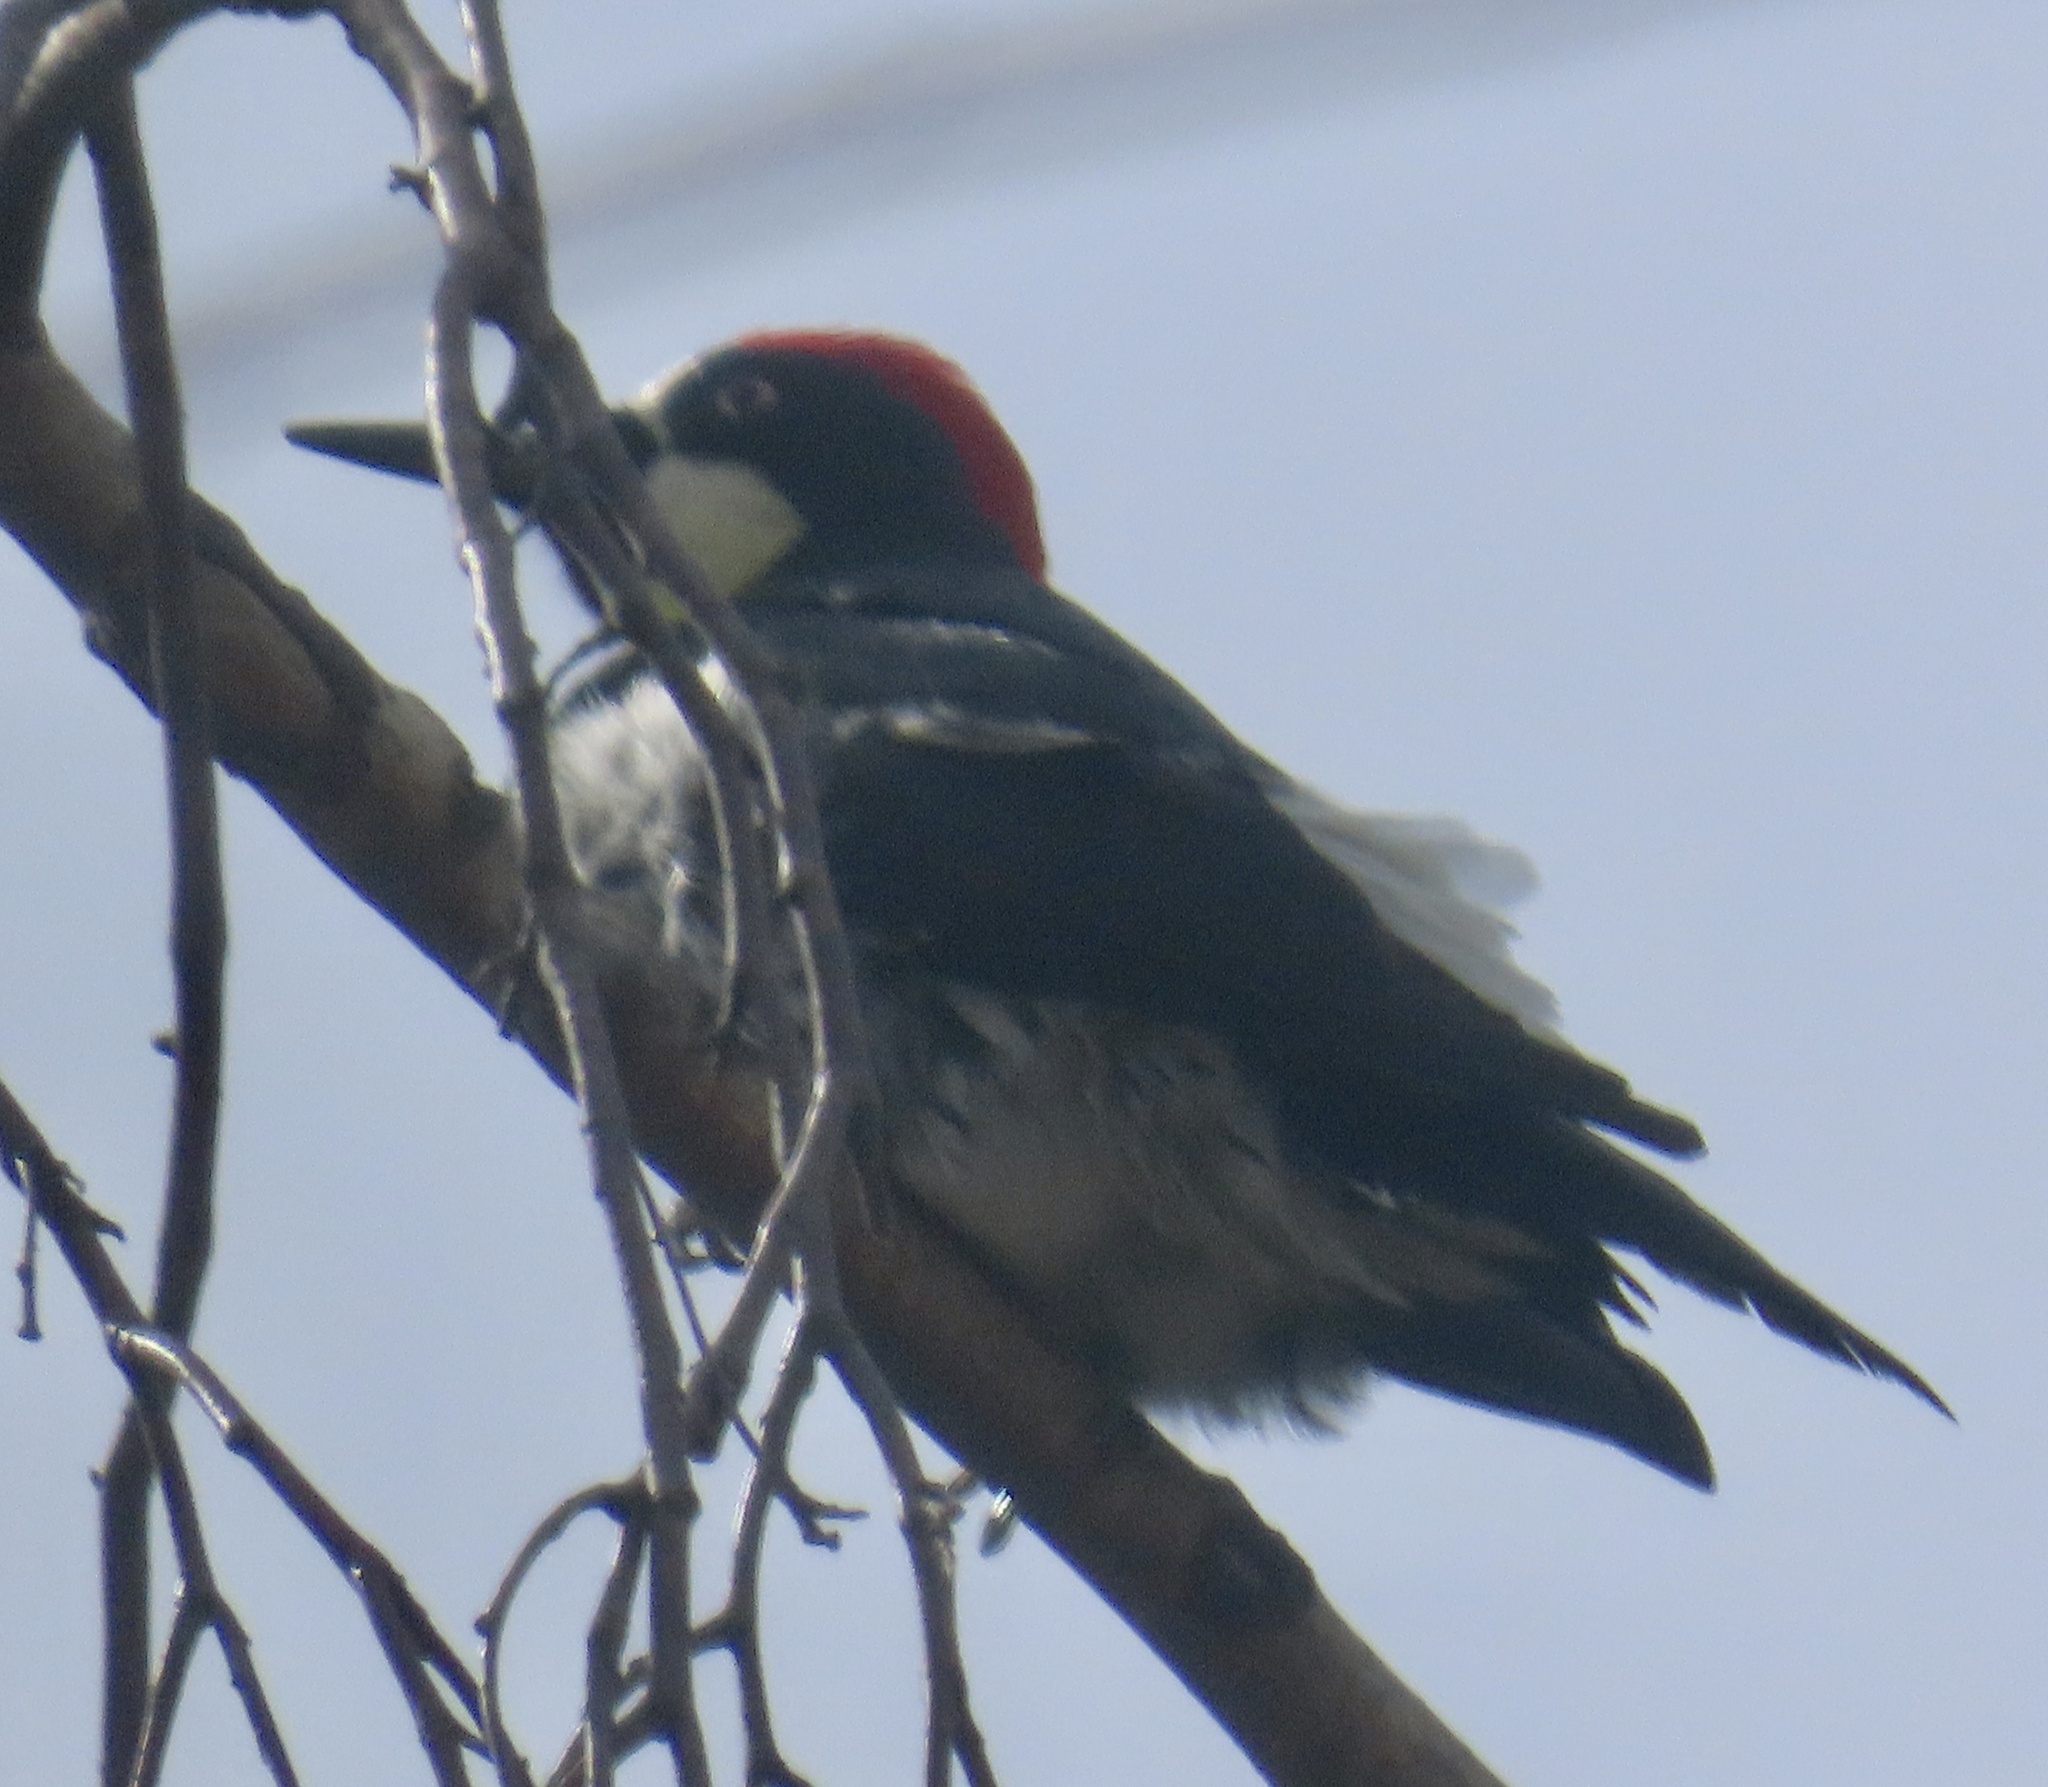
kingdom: Animalia
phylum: Chordata
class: Aves
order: Piciformes
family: Picidae
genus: Melanerpes
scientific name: Melanerpes formicivorus
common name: Acorn woodpecker
